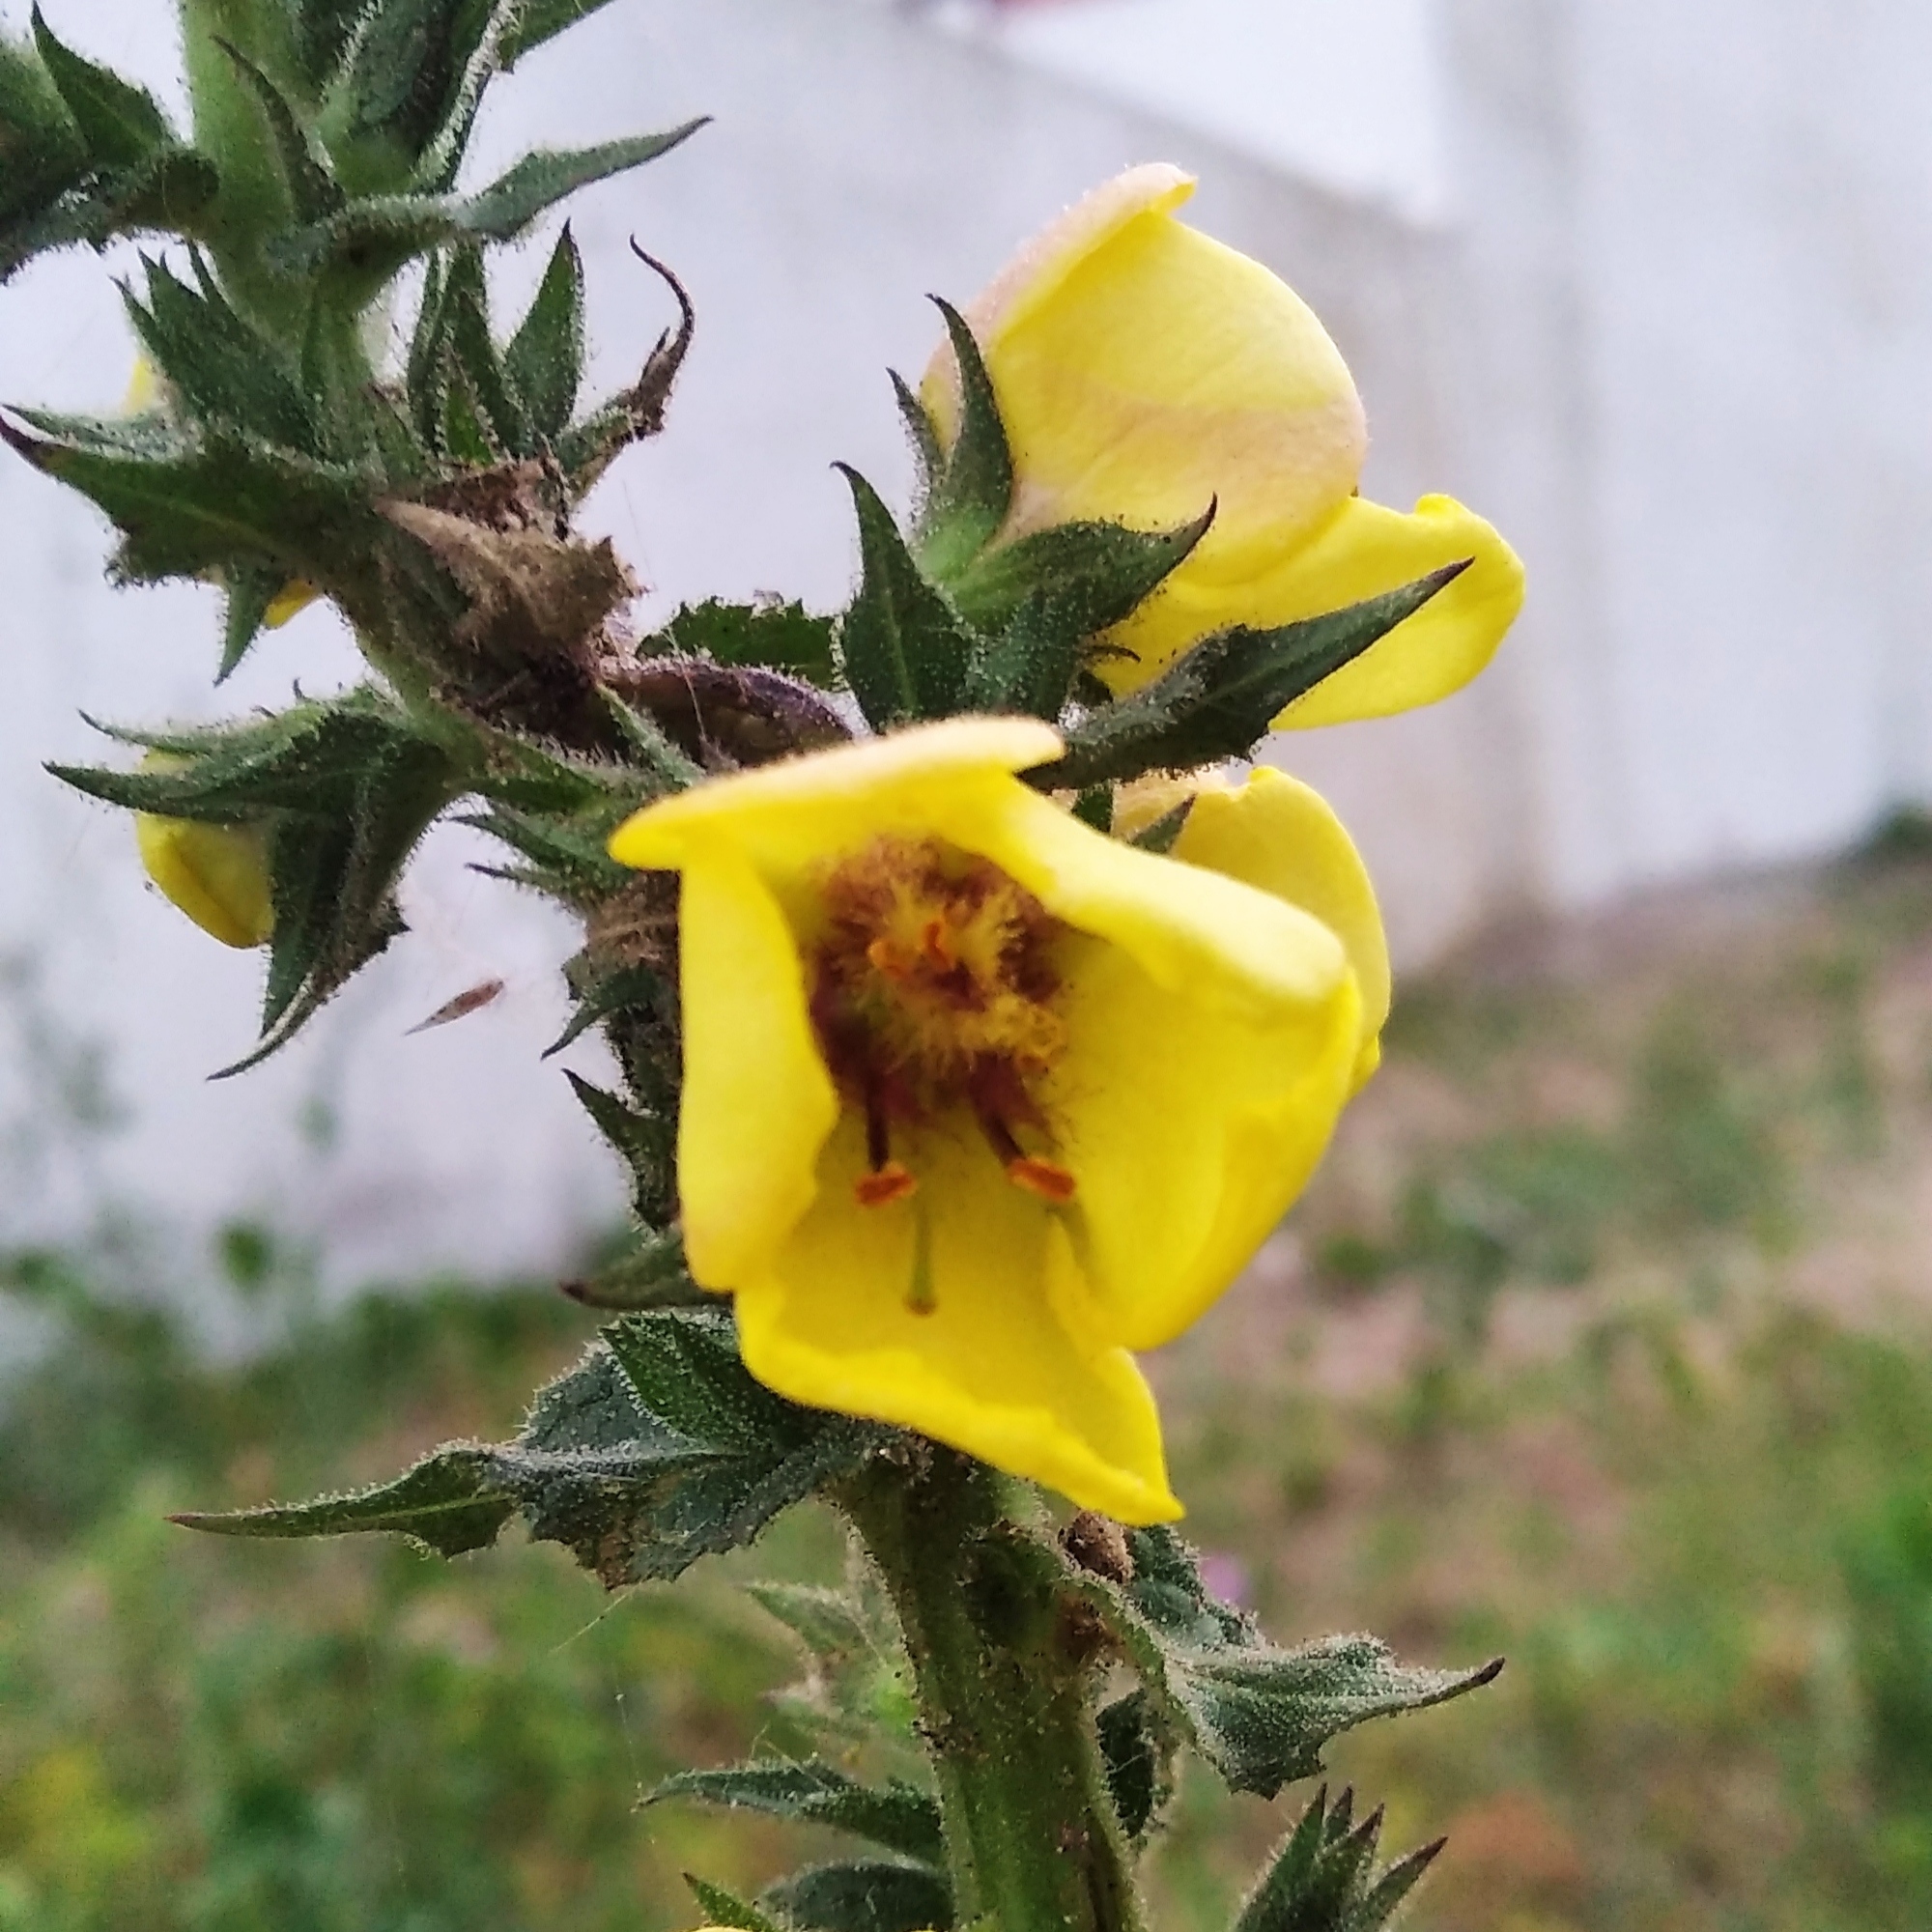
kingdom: Plantae
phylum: Tracheophyta
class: Magnoliopsida
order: Lamiales
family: Scrophulariaceae
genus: Verbascum
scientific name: Verbascum virgatum
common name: Twiggy mullein
